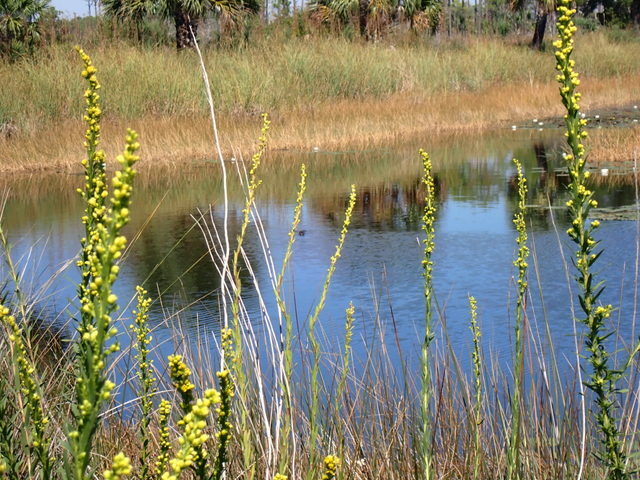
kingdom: Plantae
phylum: Tracheophyta
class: Magnoliopsida
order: Asterales
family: Asteraceae
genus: Solidago
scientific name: Solidago mexicana
